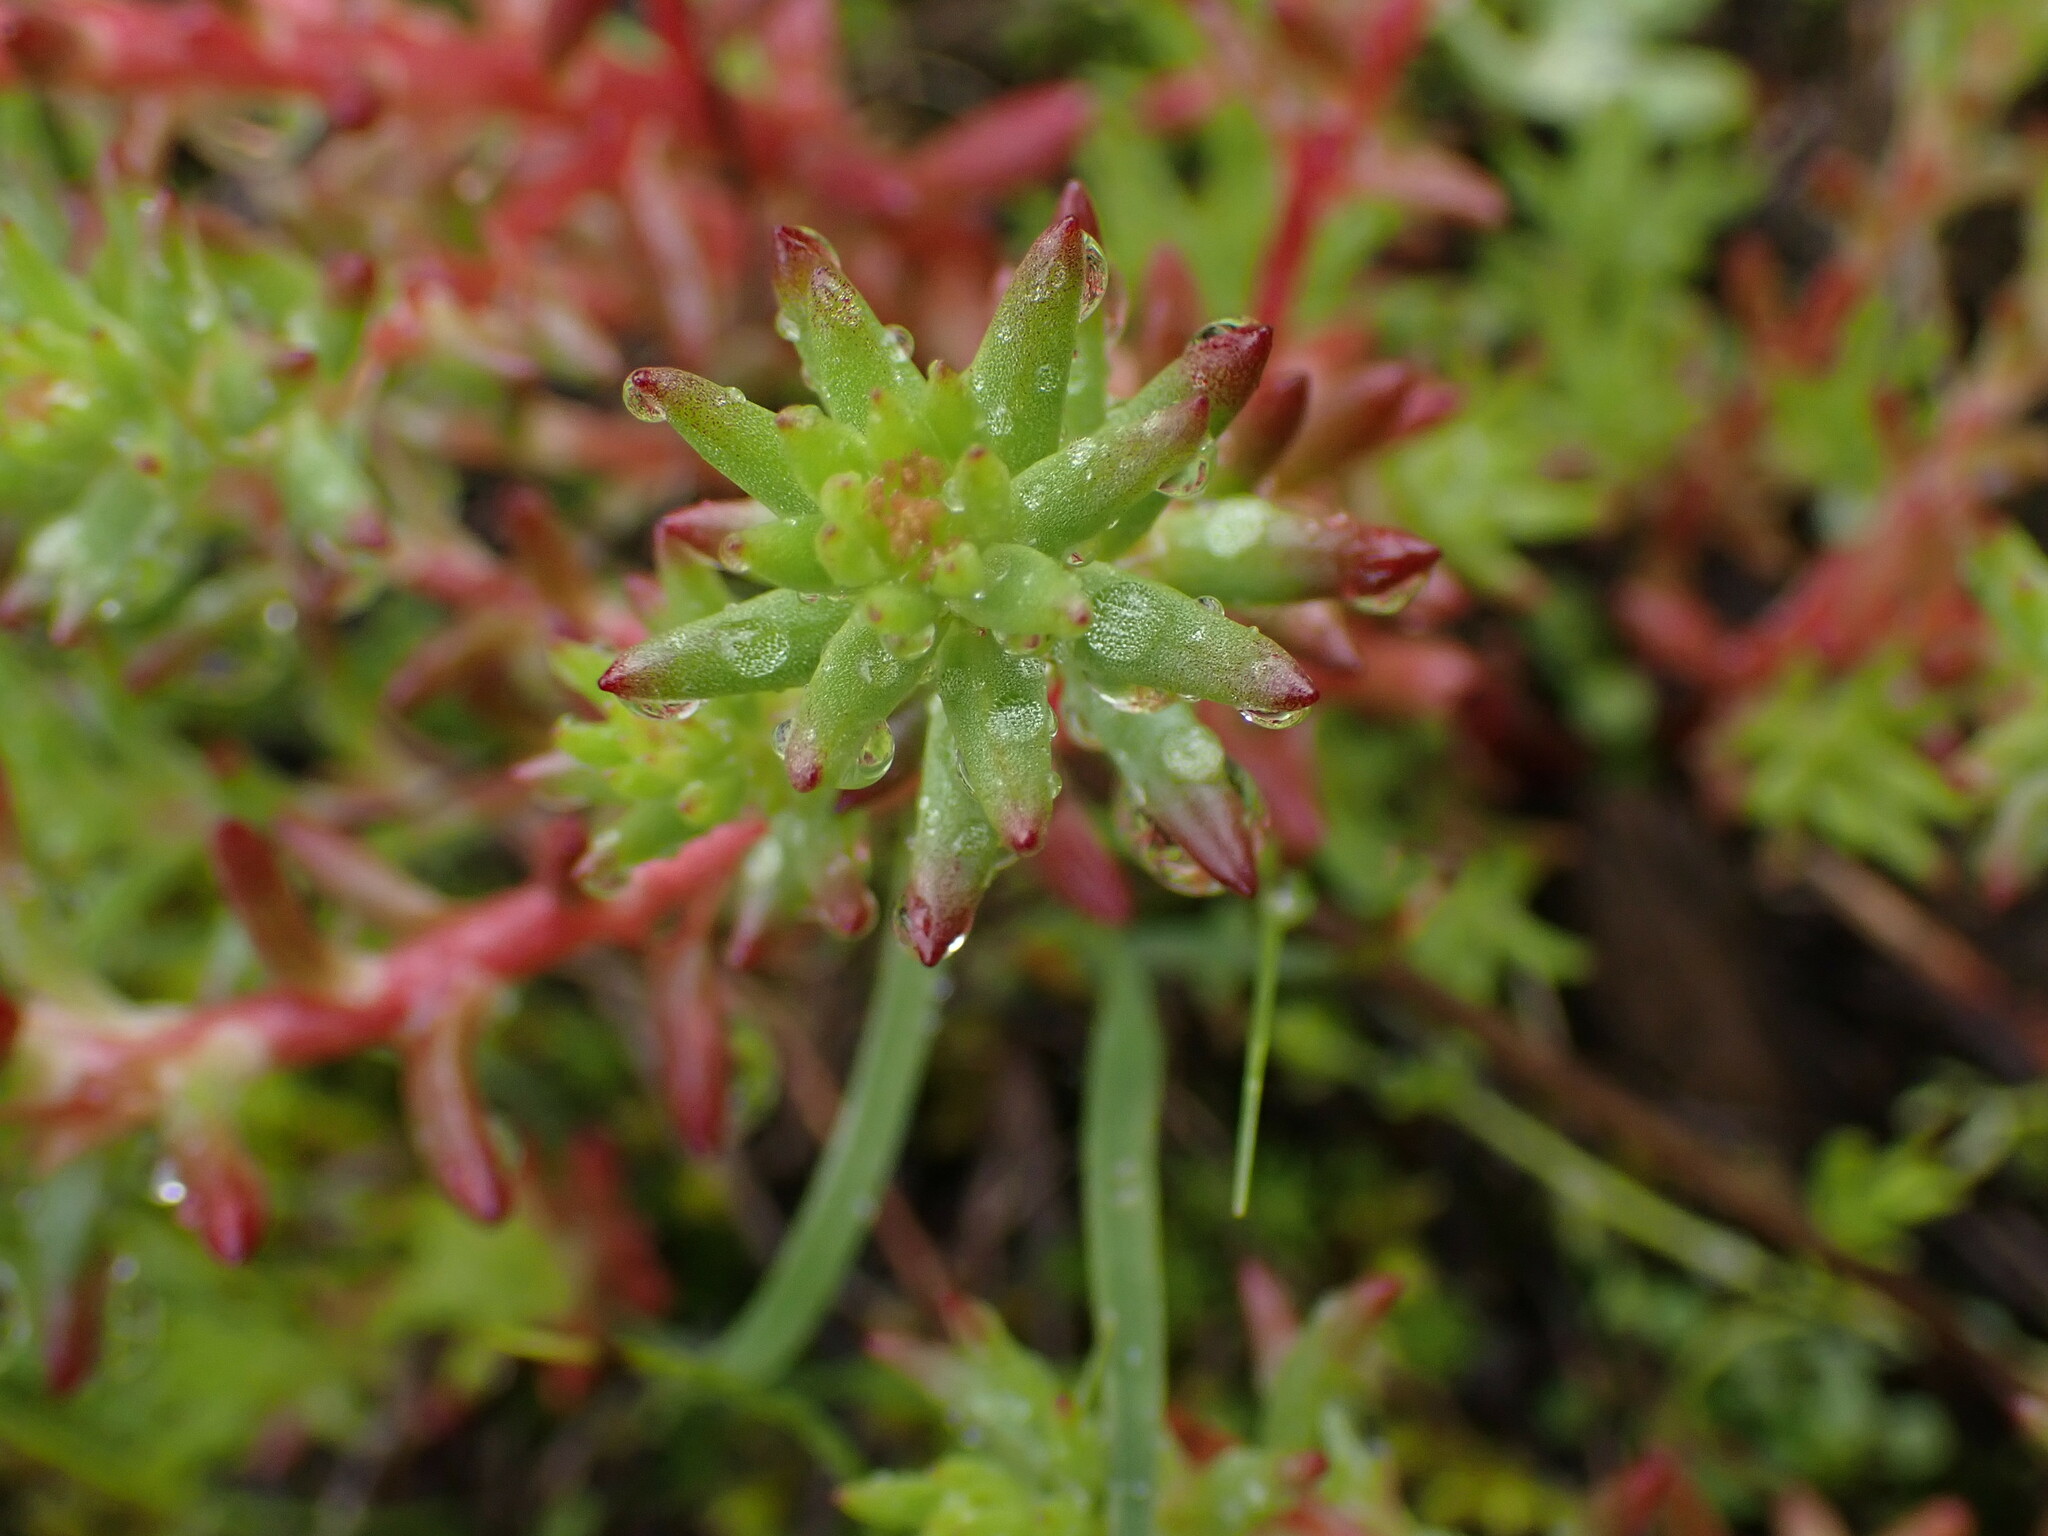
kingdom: Plantae
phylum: Tracheophyta
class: Magnoliopsida
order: Saxifragales
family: Crassulaceae
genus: Sedum
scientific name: Sedum stenopetalum
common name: Narrow-petaled stonecrop
